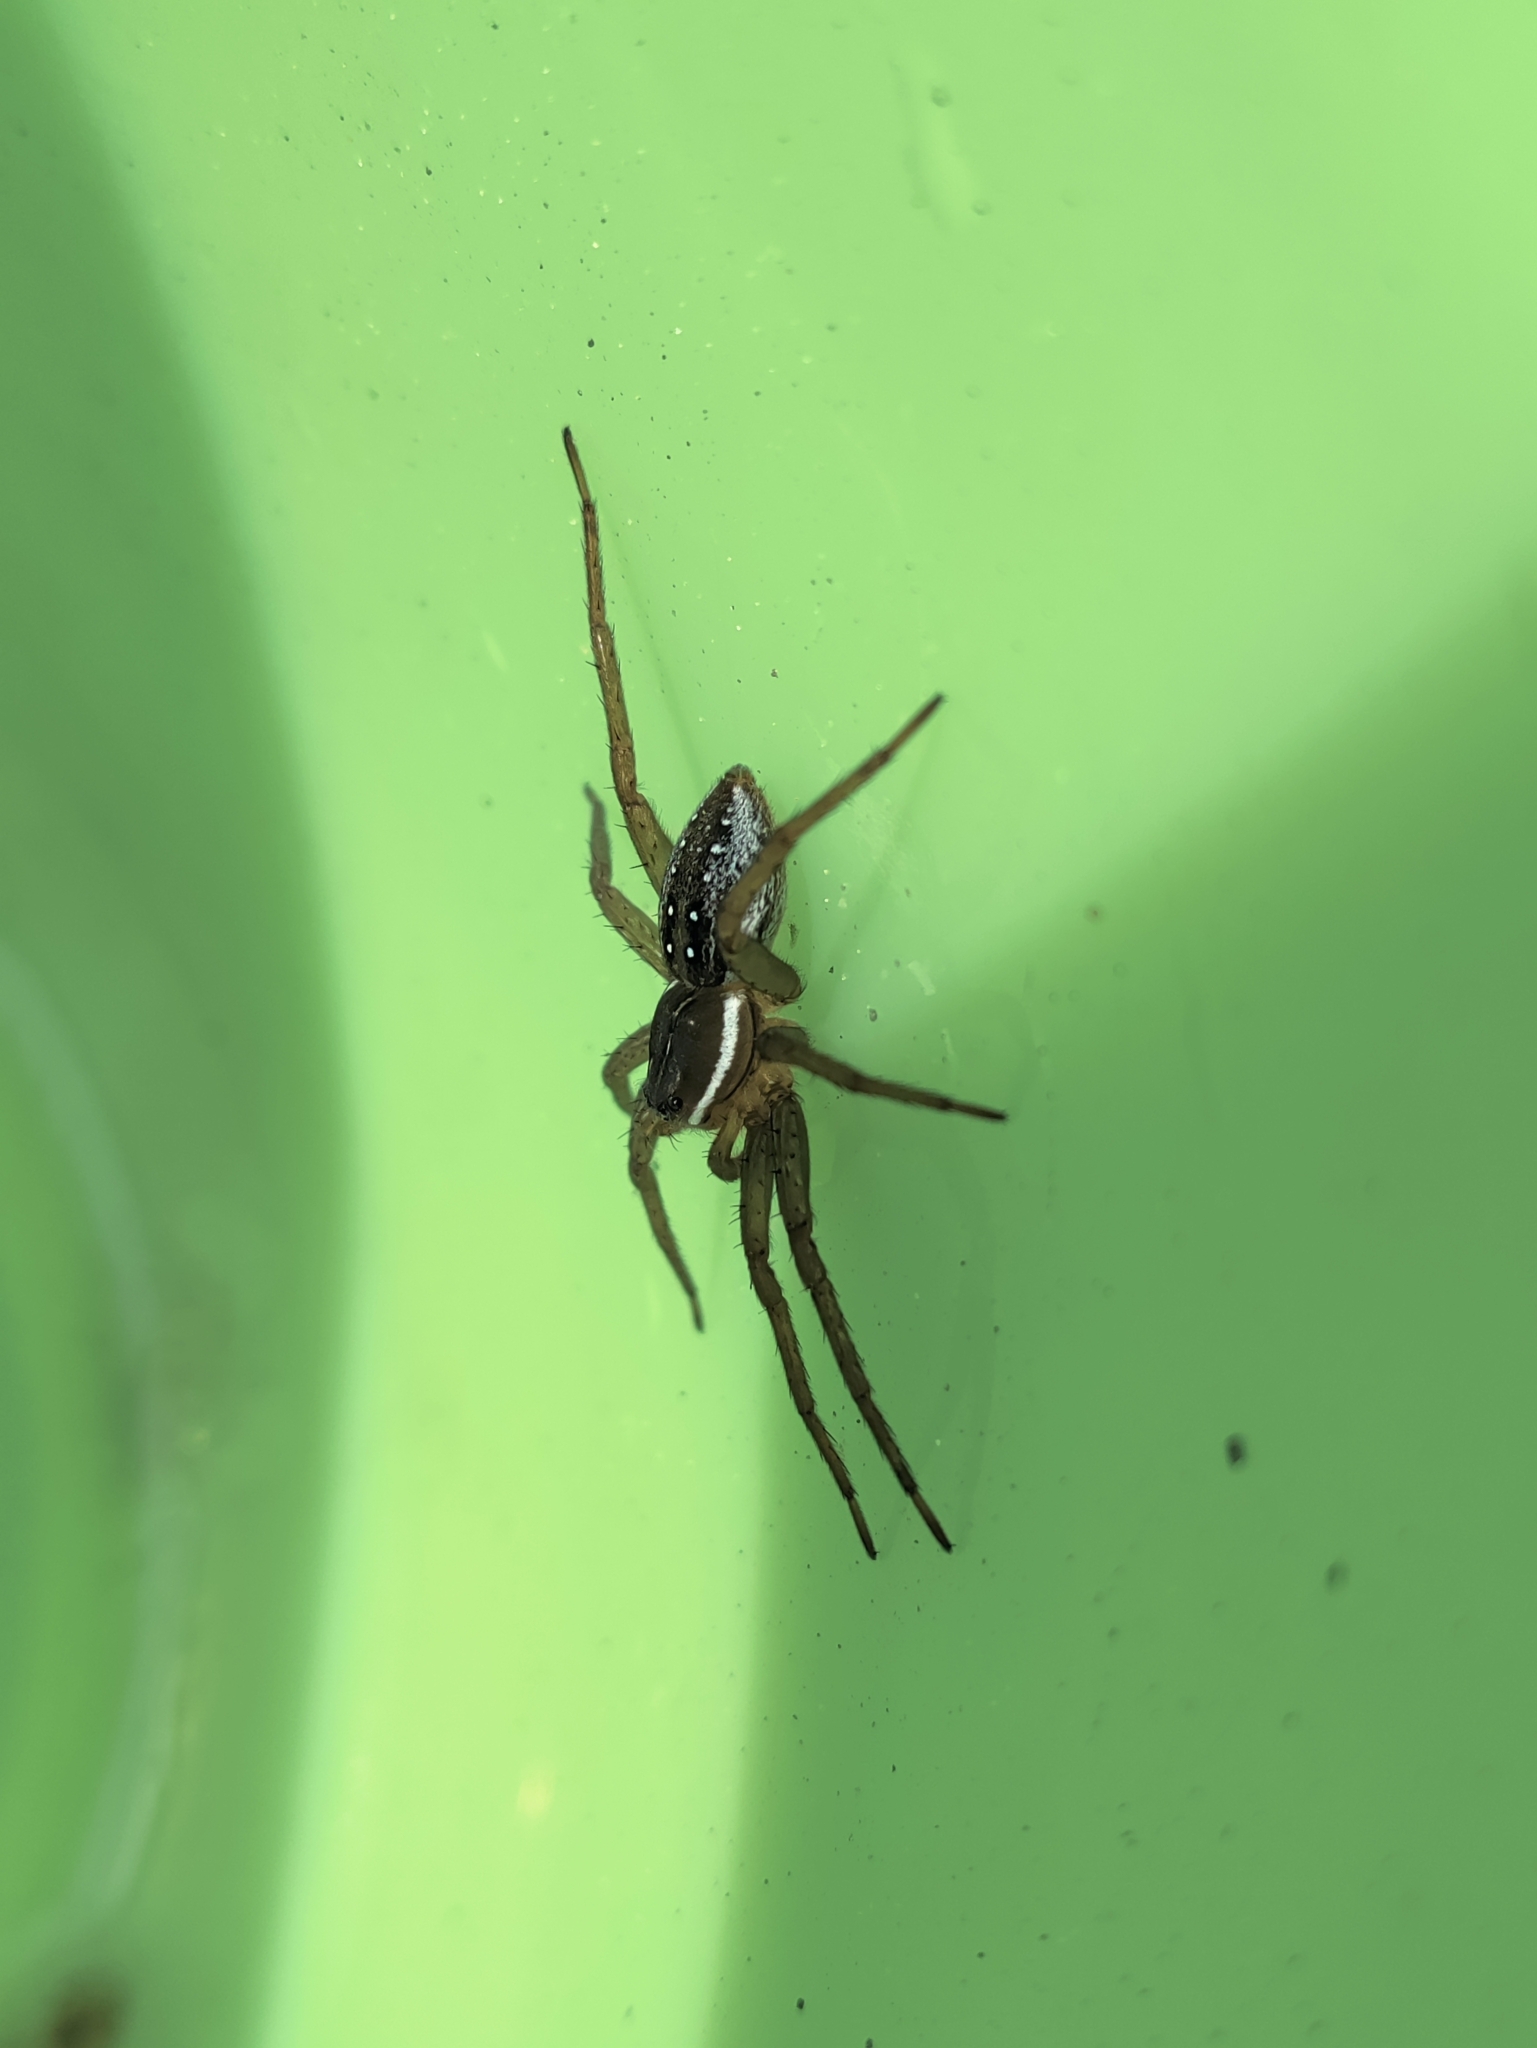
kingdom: Animalia
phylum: Arthropoda
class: Arachnida
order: Araneae
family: Pisauridae
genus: Dolomedes
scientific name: Dolomedes triton
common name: Six-spotted fishing spider
